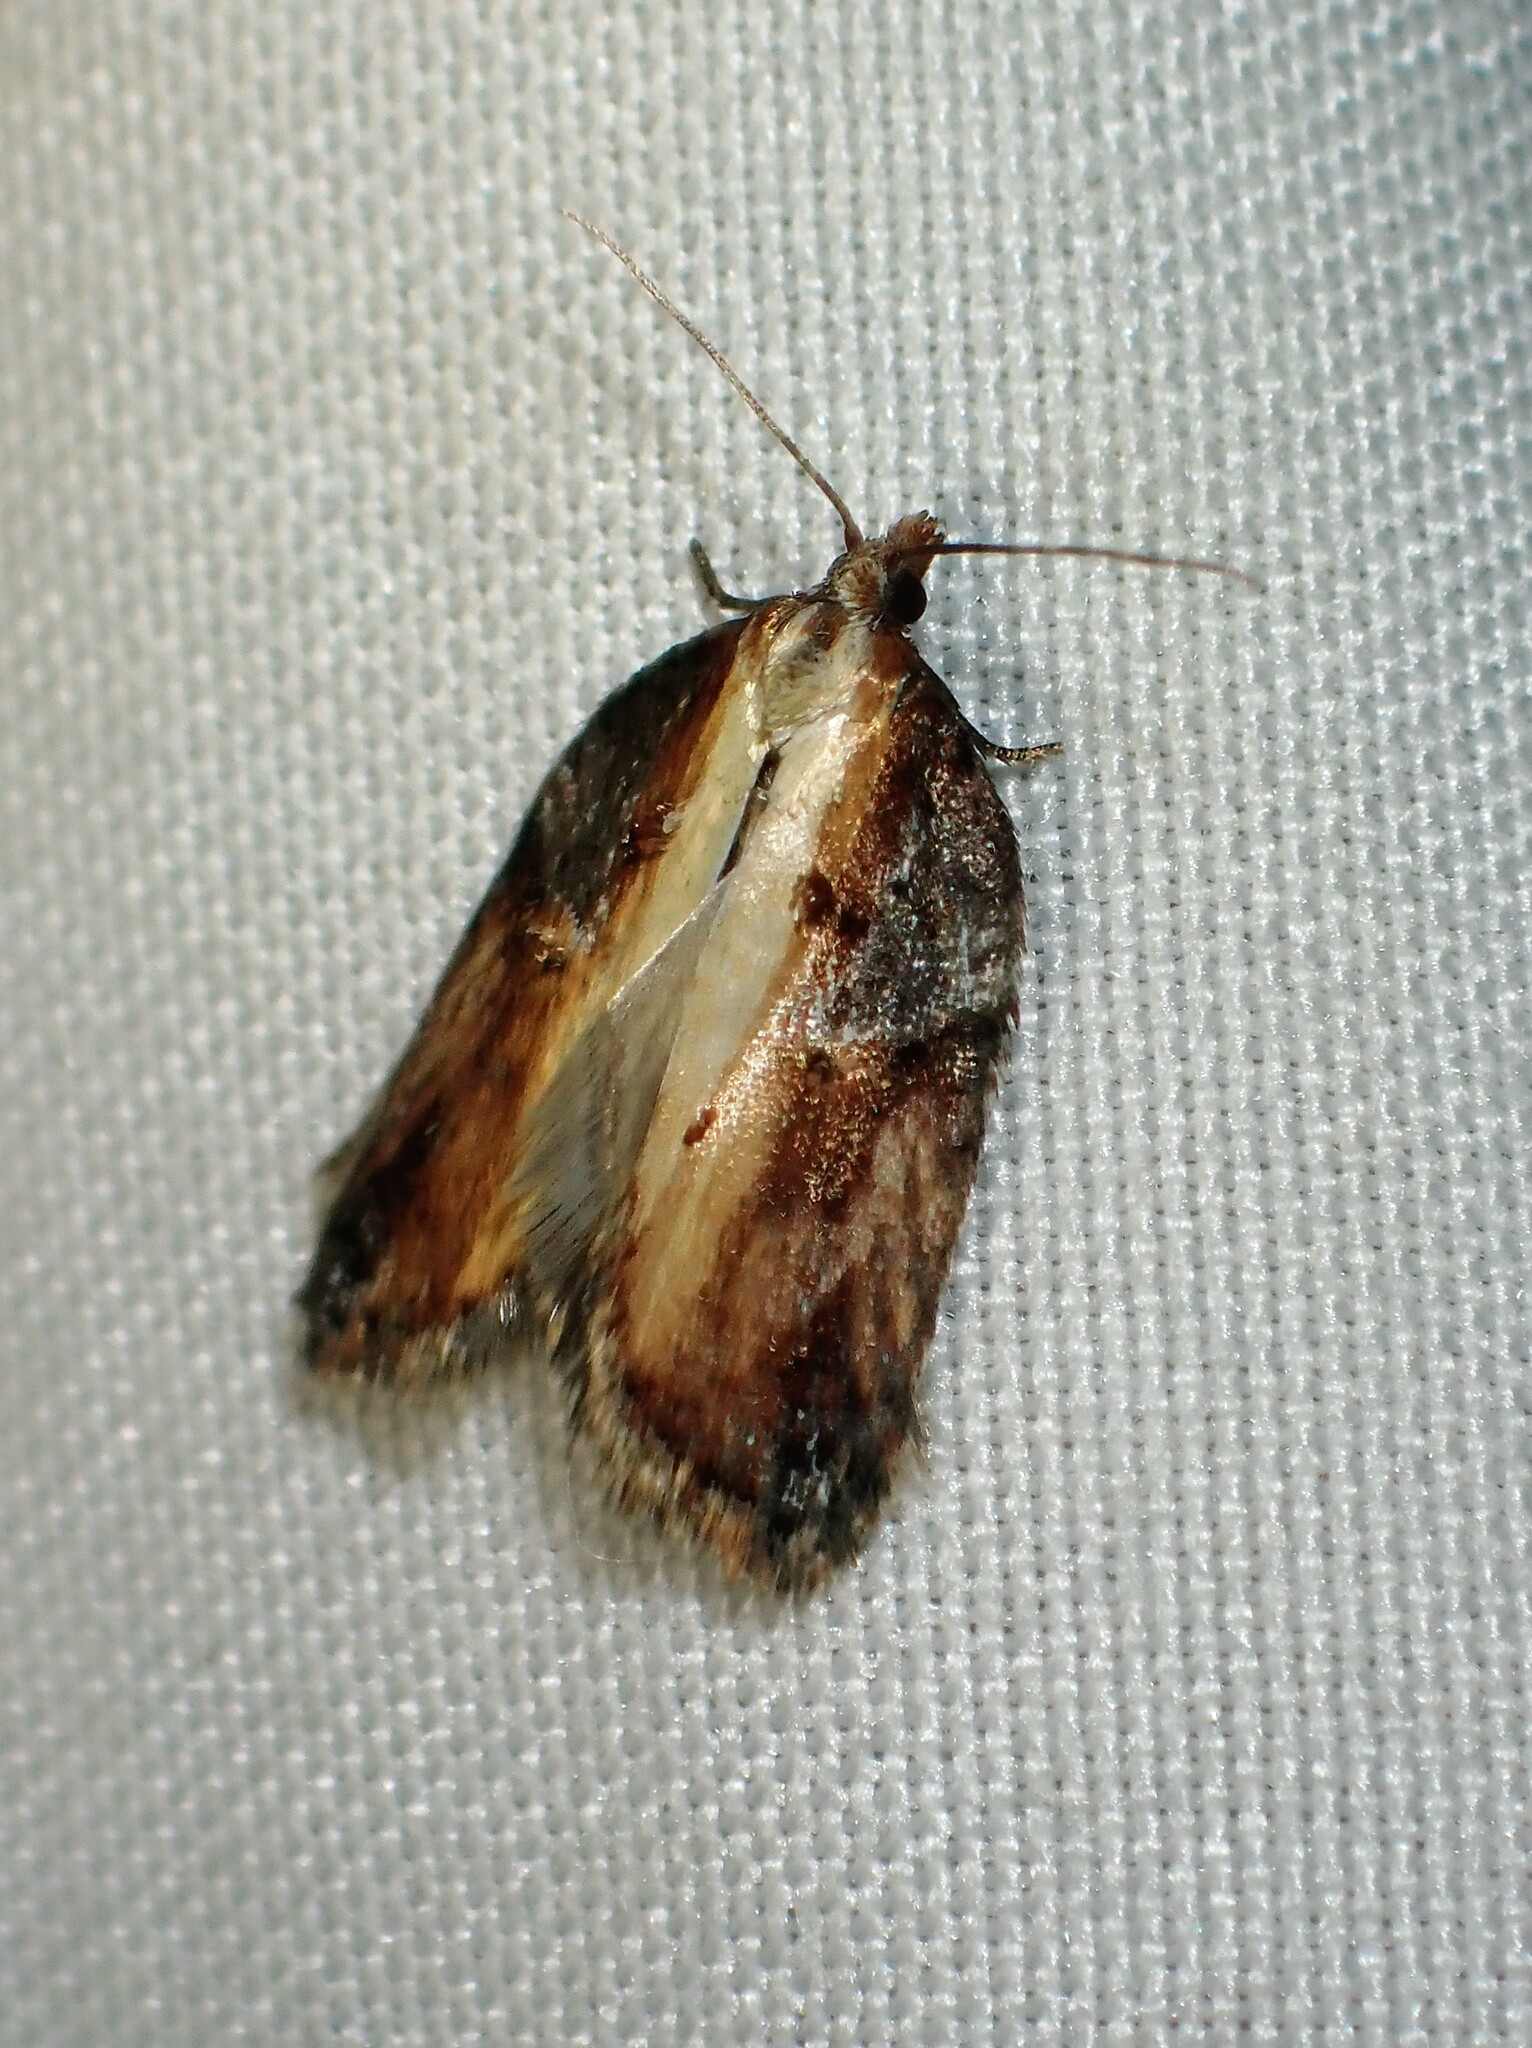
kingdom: Animalia
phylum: Arthropoda
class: Insecta
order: Lepidoptera
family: Tortricidae
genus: Acleris
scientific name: Acleris robinsoniana
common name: Robinson's acleris moth
